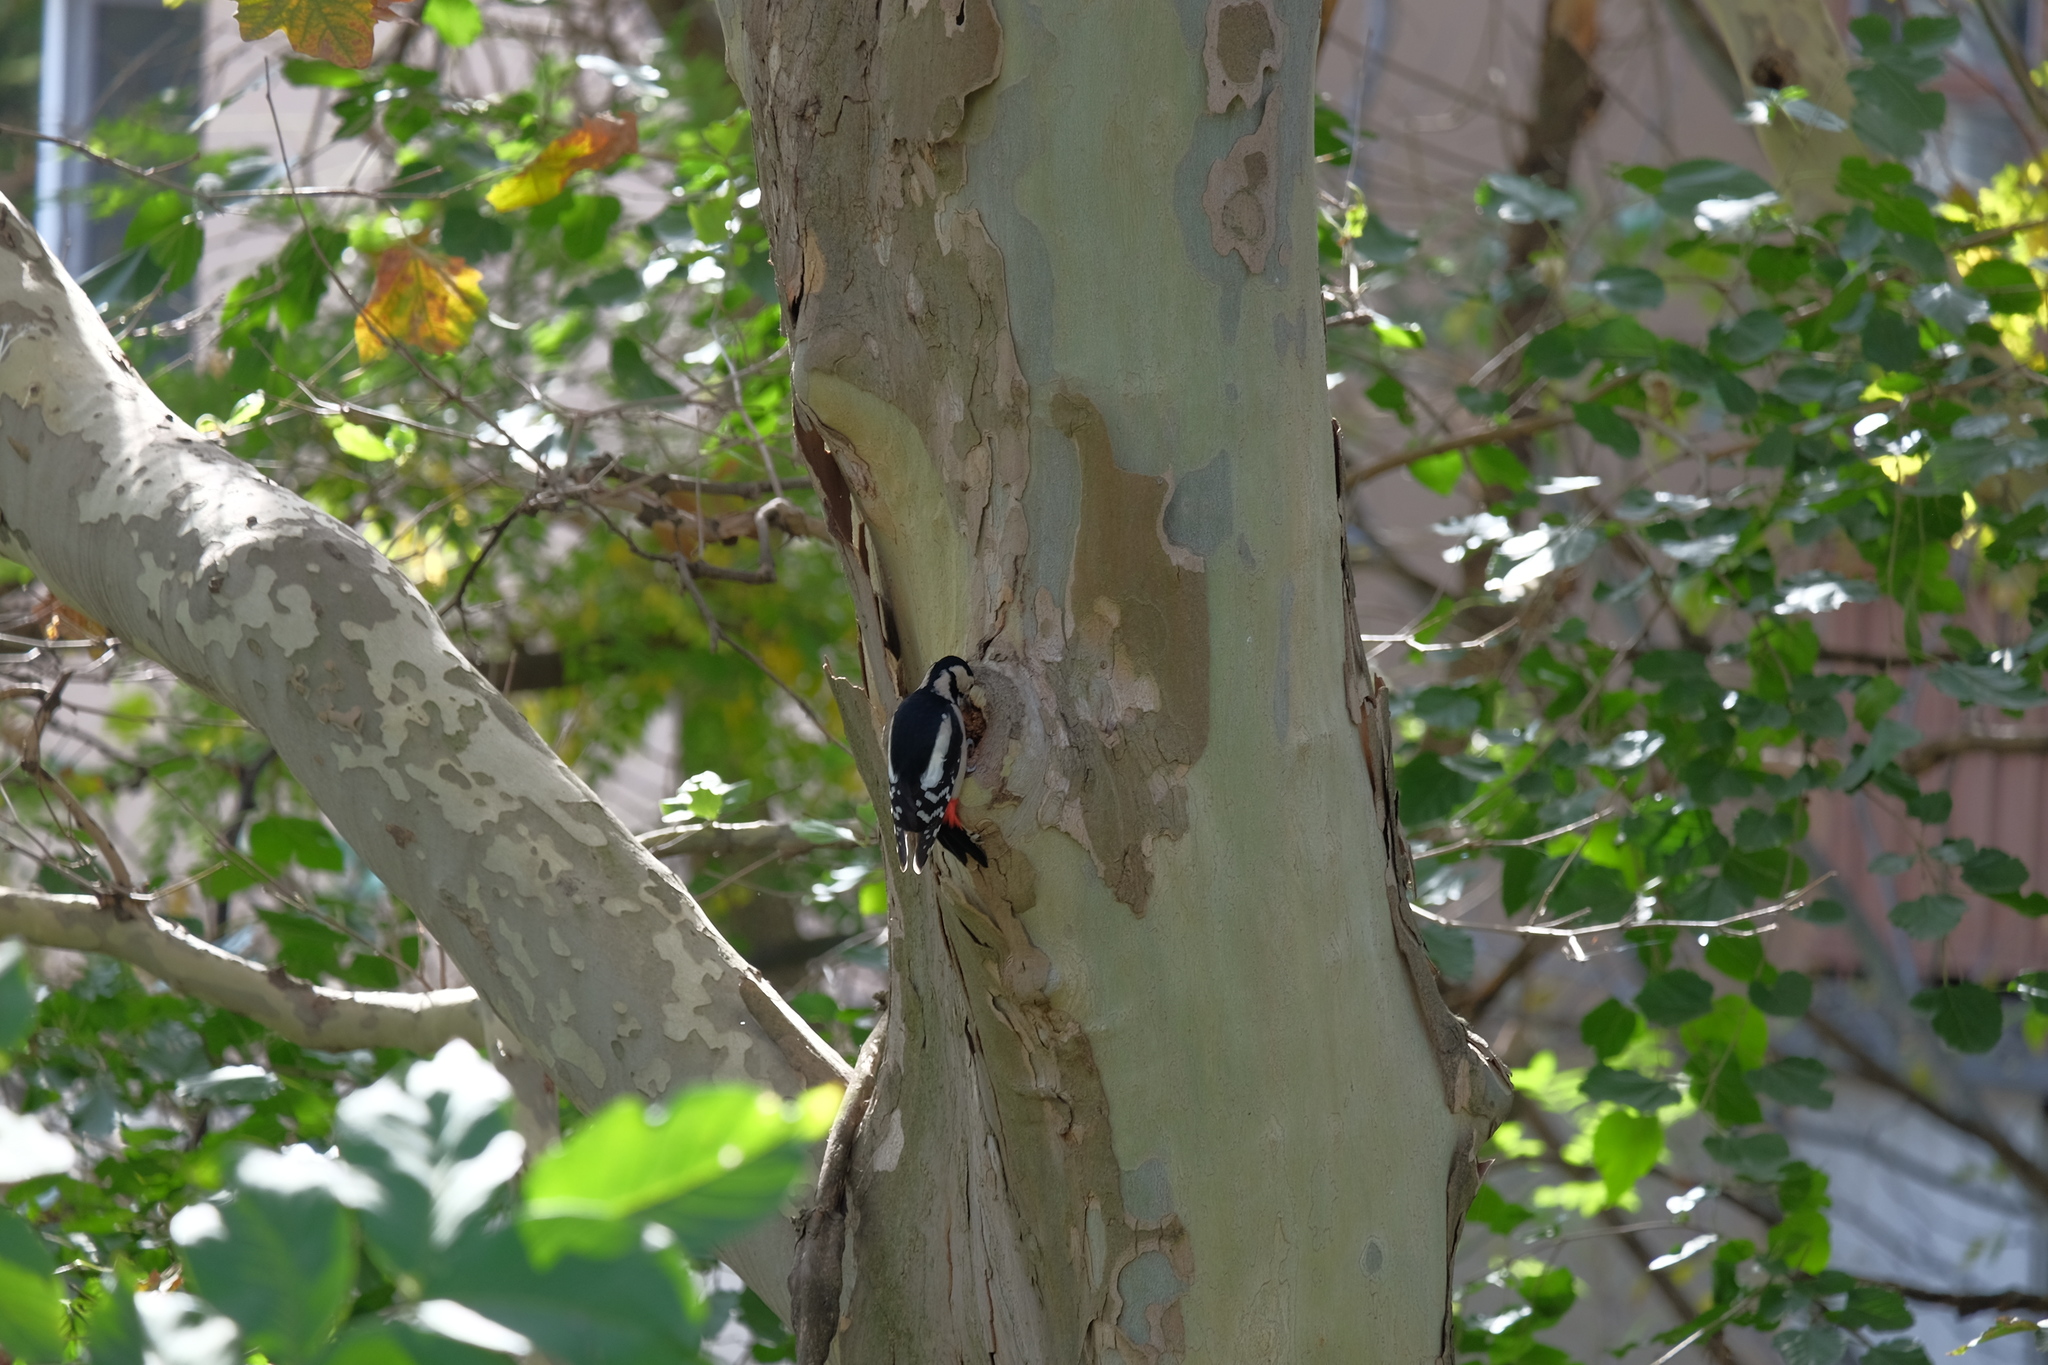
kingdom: Animalia
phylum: Chordata
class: Aves
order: Piciformes
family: Picidae
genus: Dendrocopos
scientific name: Dendrocopos major
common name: Great spotted woodpecker
